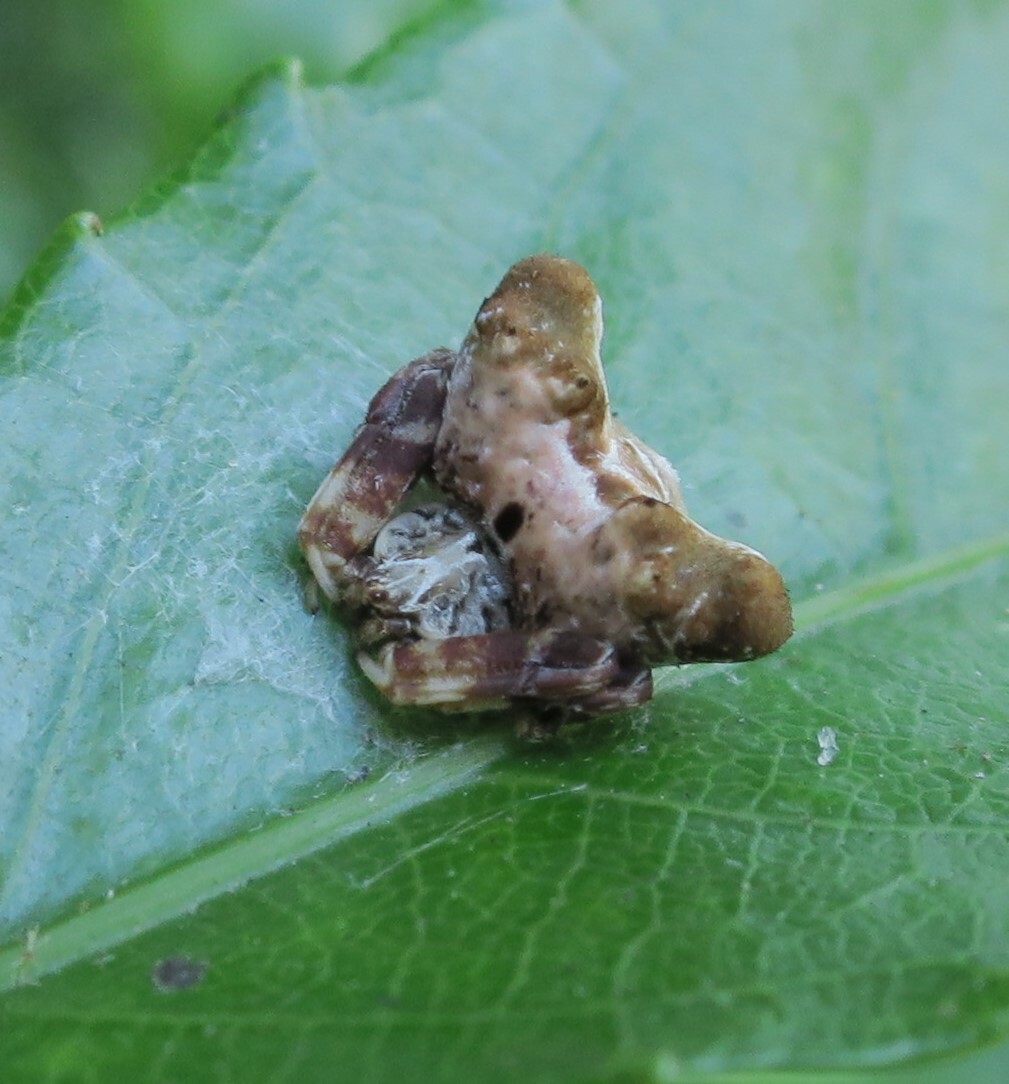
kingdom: Animalia
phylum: Arthropoda
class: Arachnida
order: Araneae
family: Araneidae
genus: Celaenia
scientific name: Celaenia olivacea
